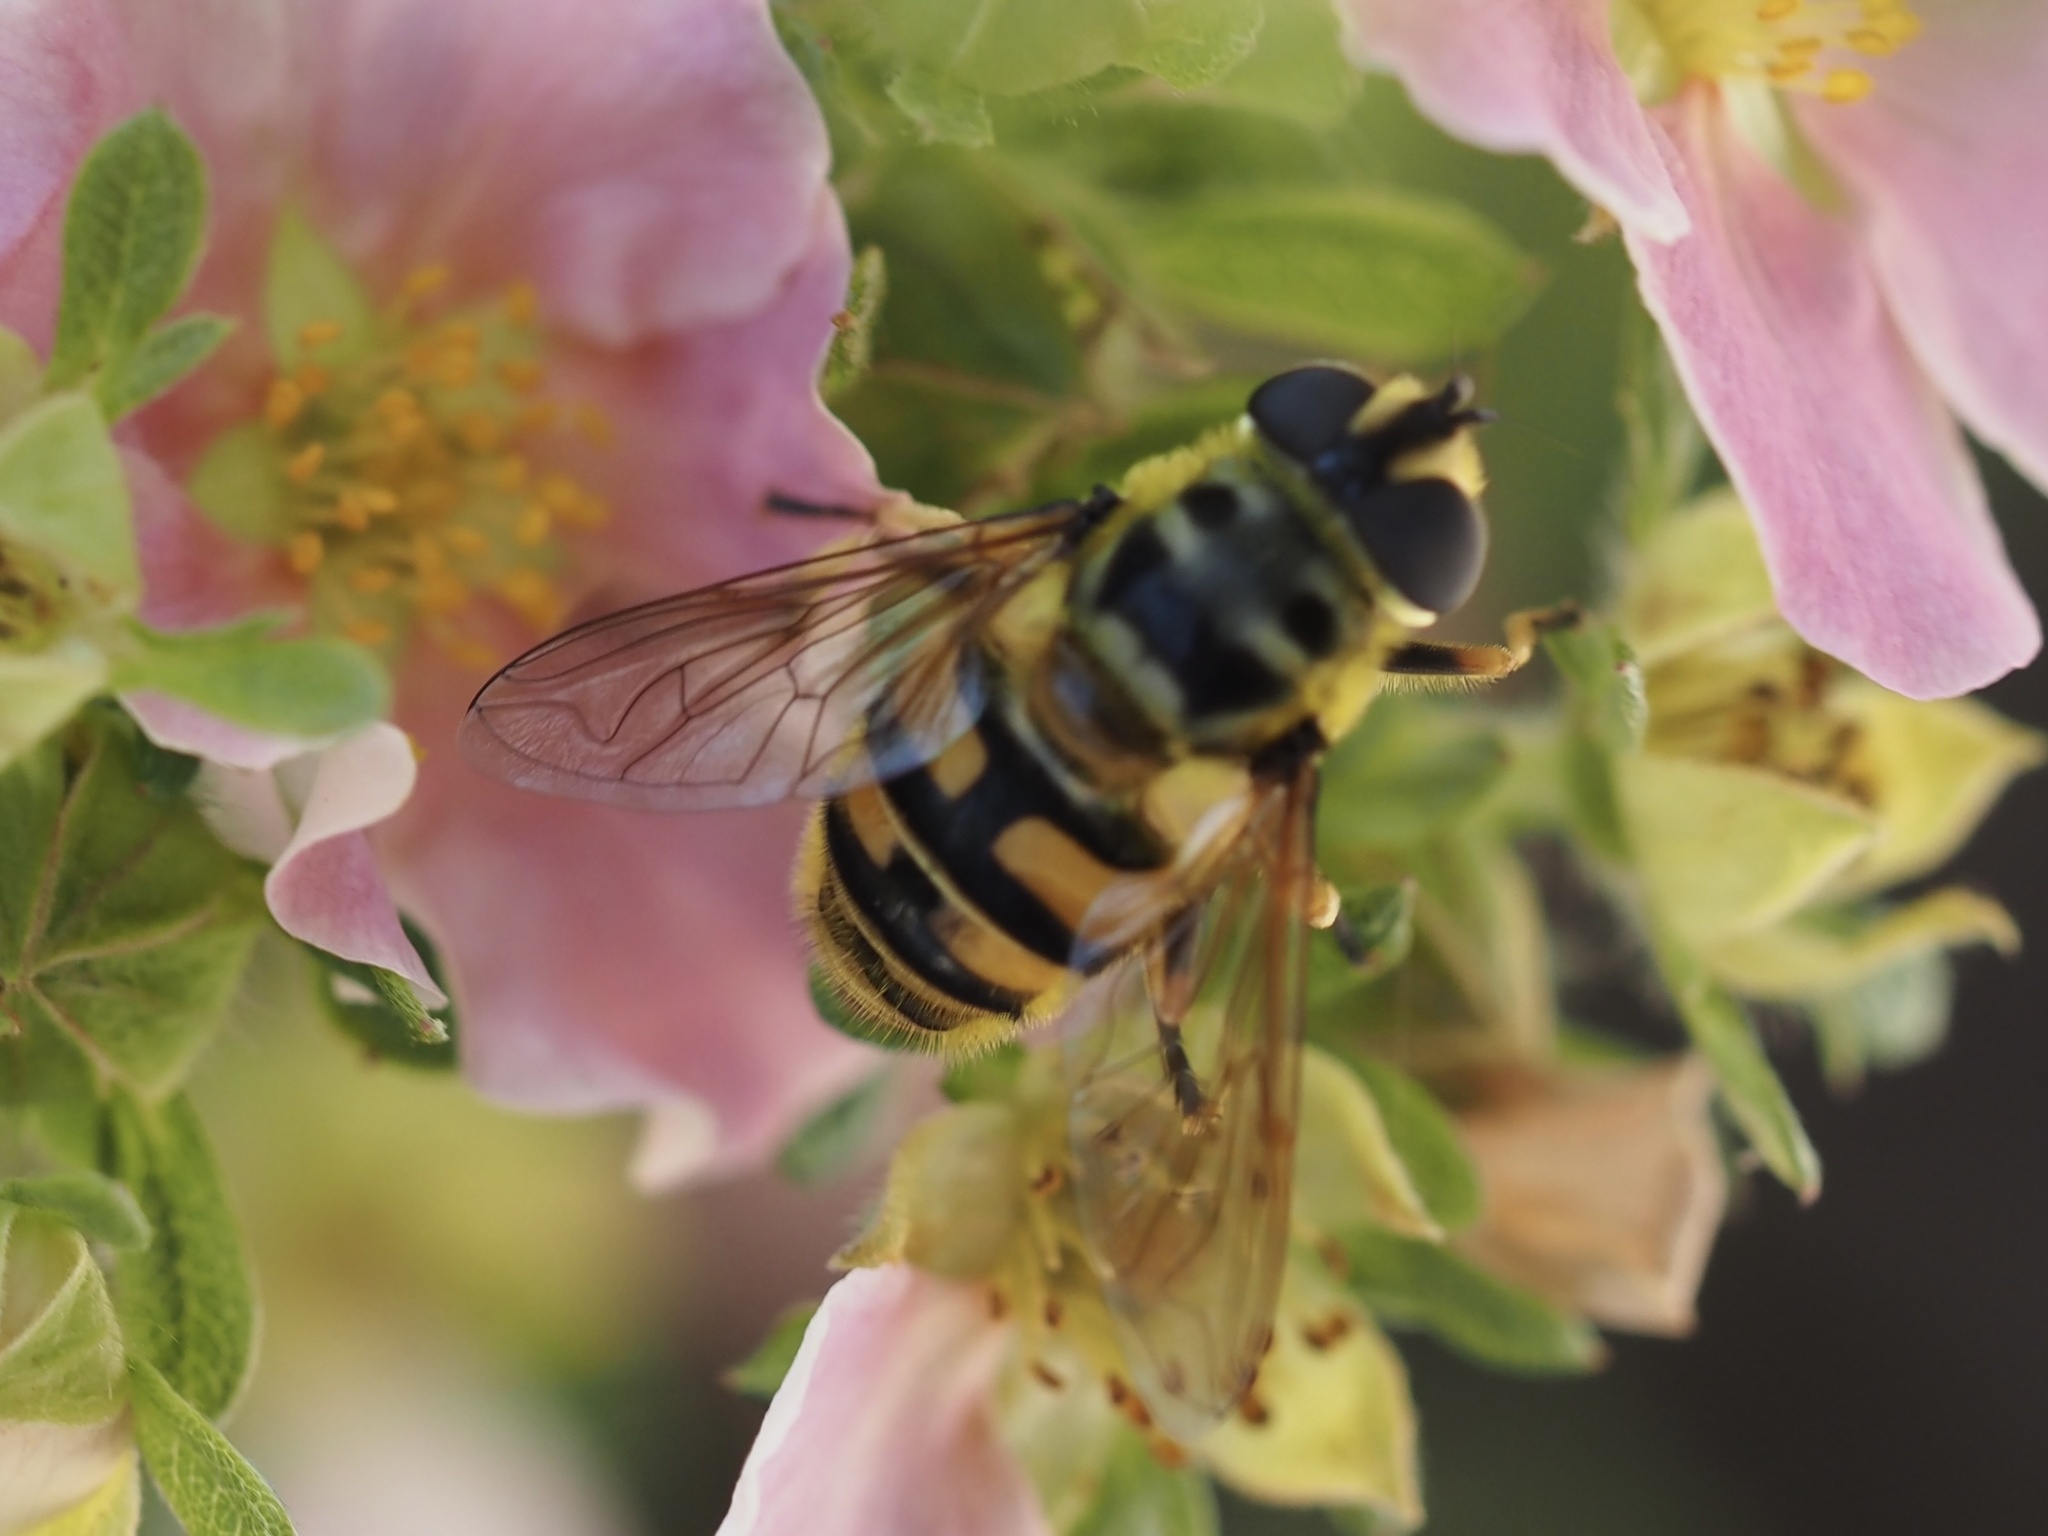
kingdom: Animalia
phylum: Arthropoda
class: Insecta
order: Diptera
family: Syrphidae
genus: Myathropa
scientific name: Myathropa florea
